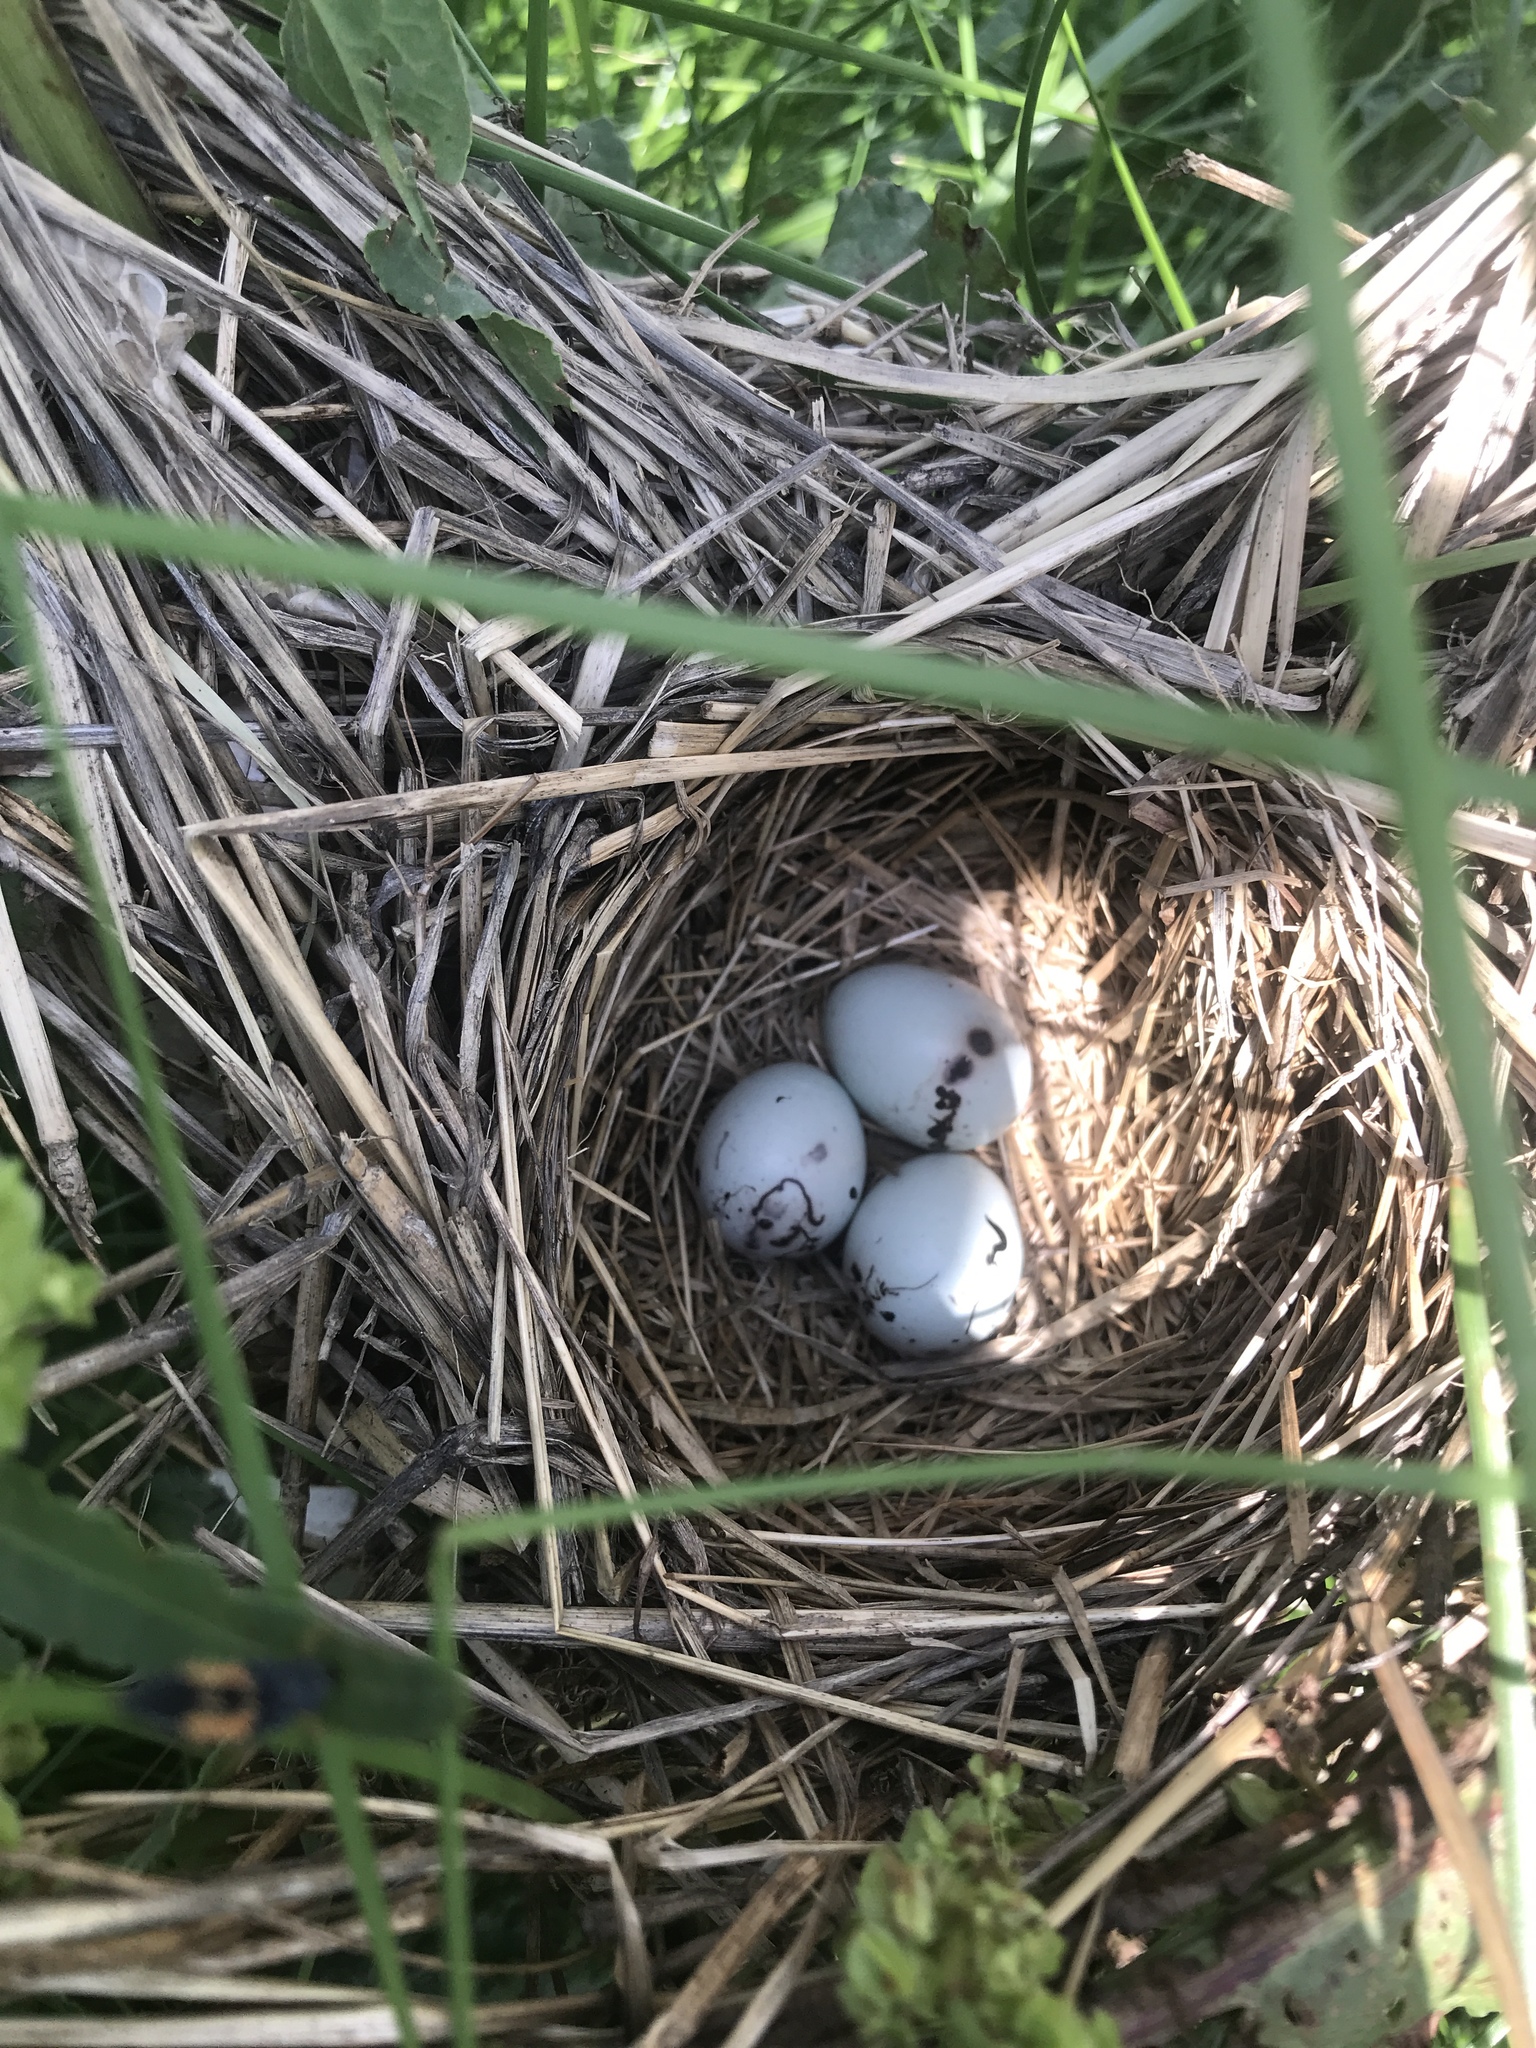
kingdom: Animalia
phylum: Chordata
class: Aves
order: Passeriformes
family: Icteridae
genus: Agelaius
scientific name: Agelaius phoeniceus
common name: Red-winged blackbird
